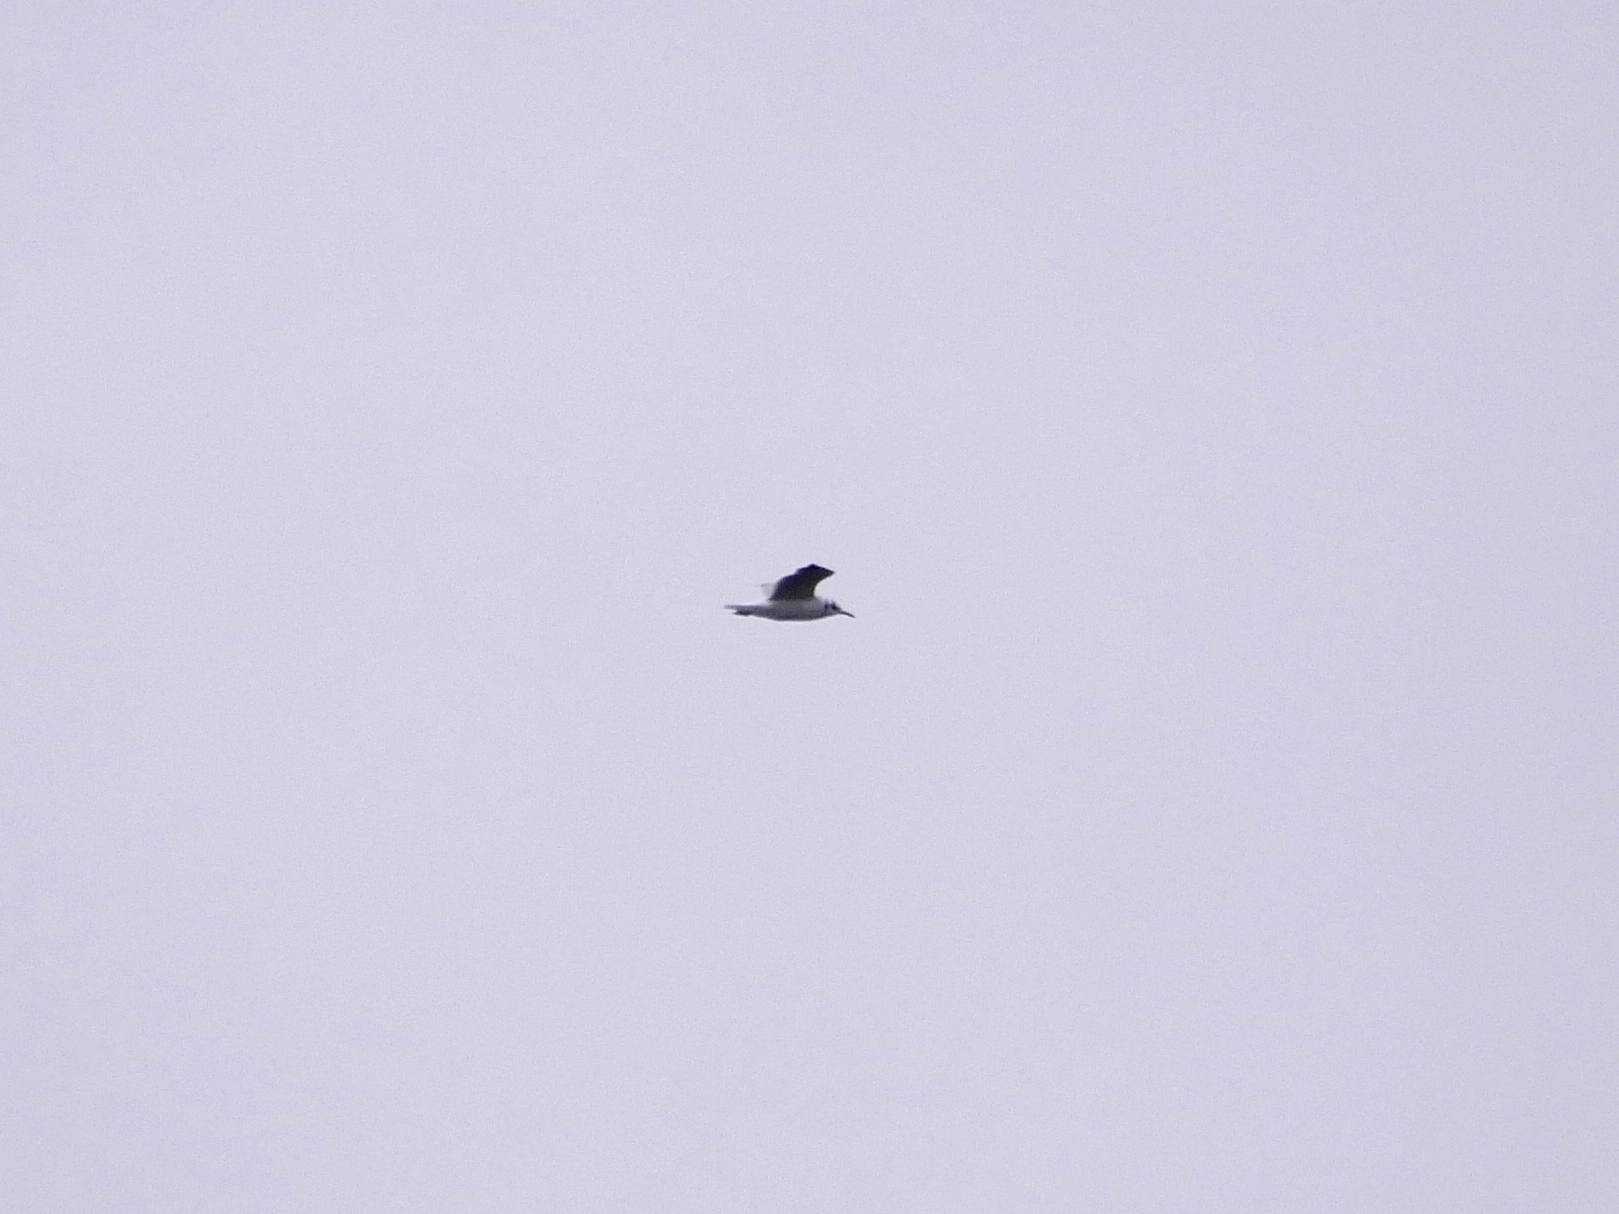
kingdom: Animalia
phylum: Chordata
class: Aves
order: Charadriiformes
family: Laridae
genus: Chroicocephalus
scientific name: Chroicocephalus ridibundus
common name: Black-headed gull
